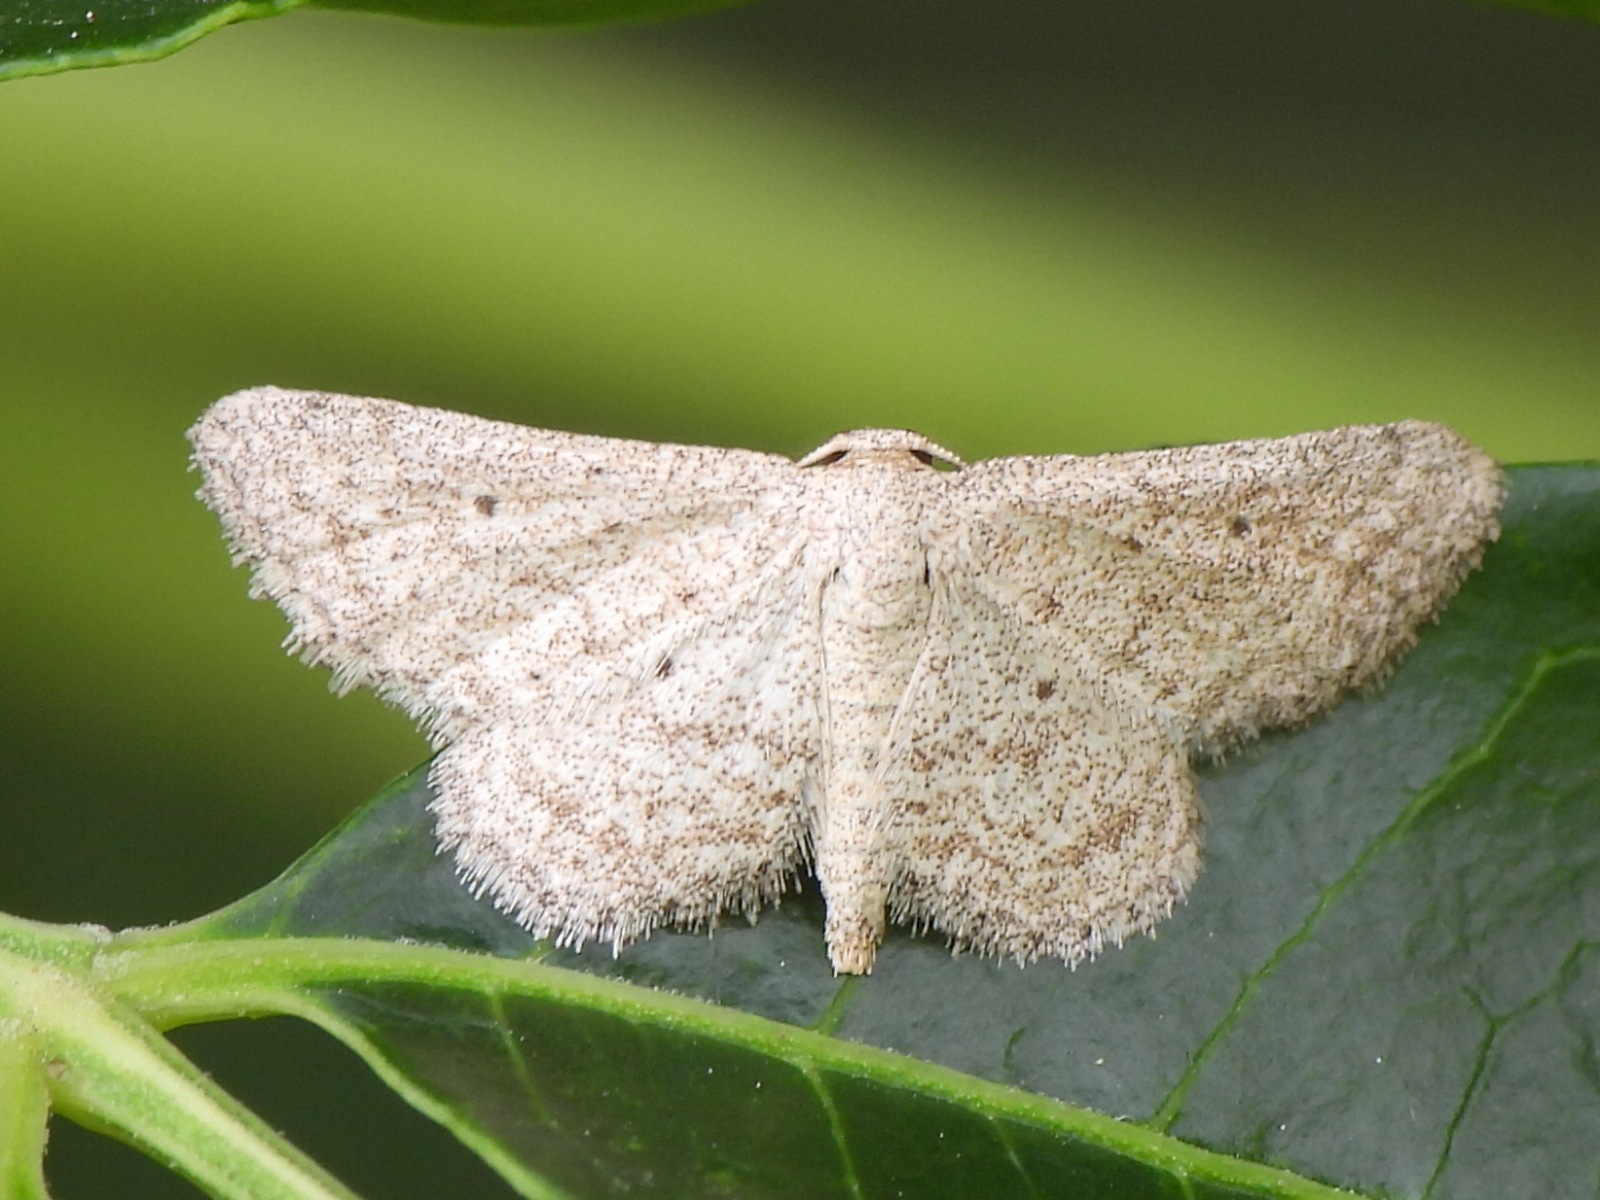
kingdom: Animalia
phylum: Arthropoda
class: Insecta
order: Lepidoptera
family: Geometridae
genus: Lobocleta
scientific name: Lobocleta ossularia
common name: Drab brown wave
